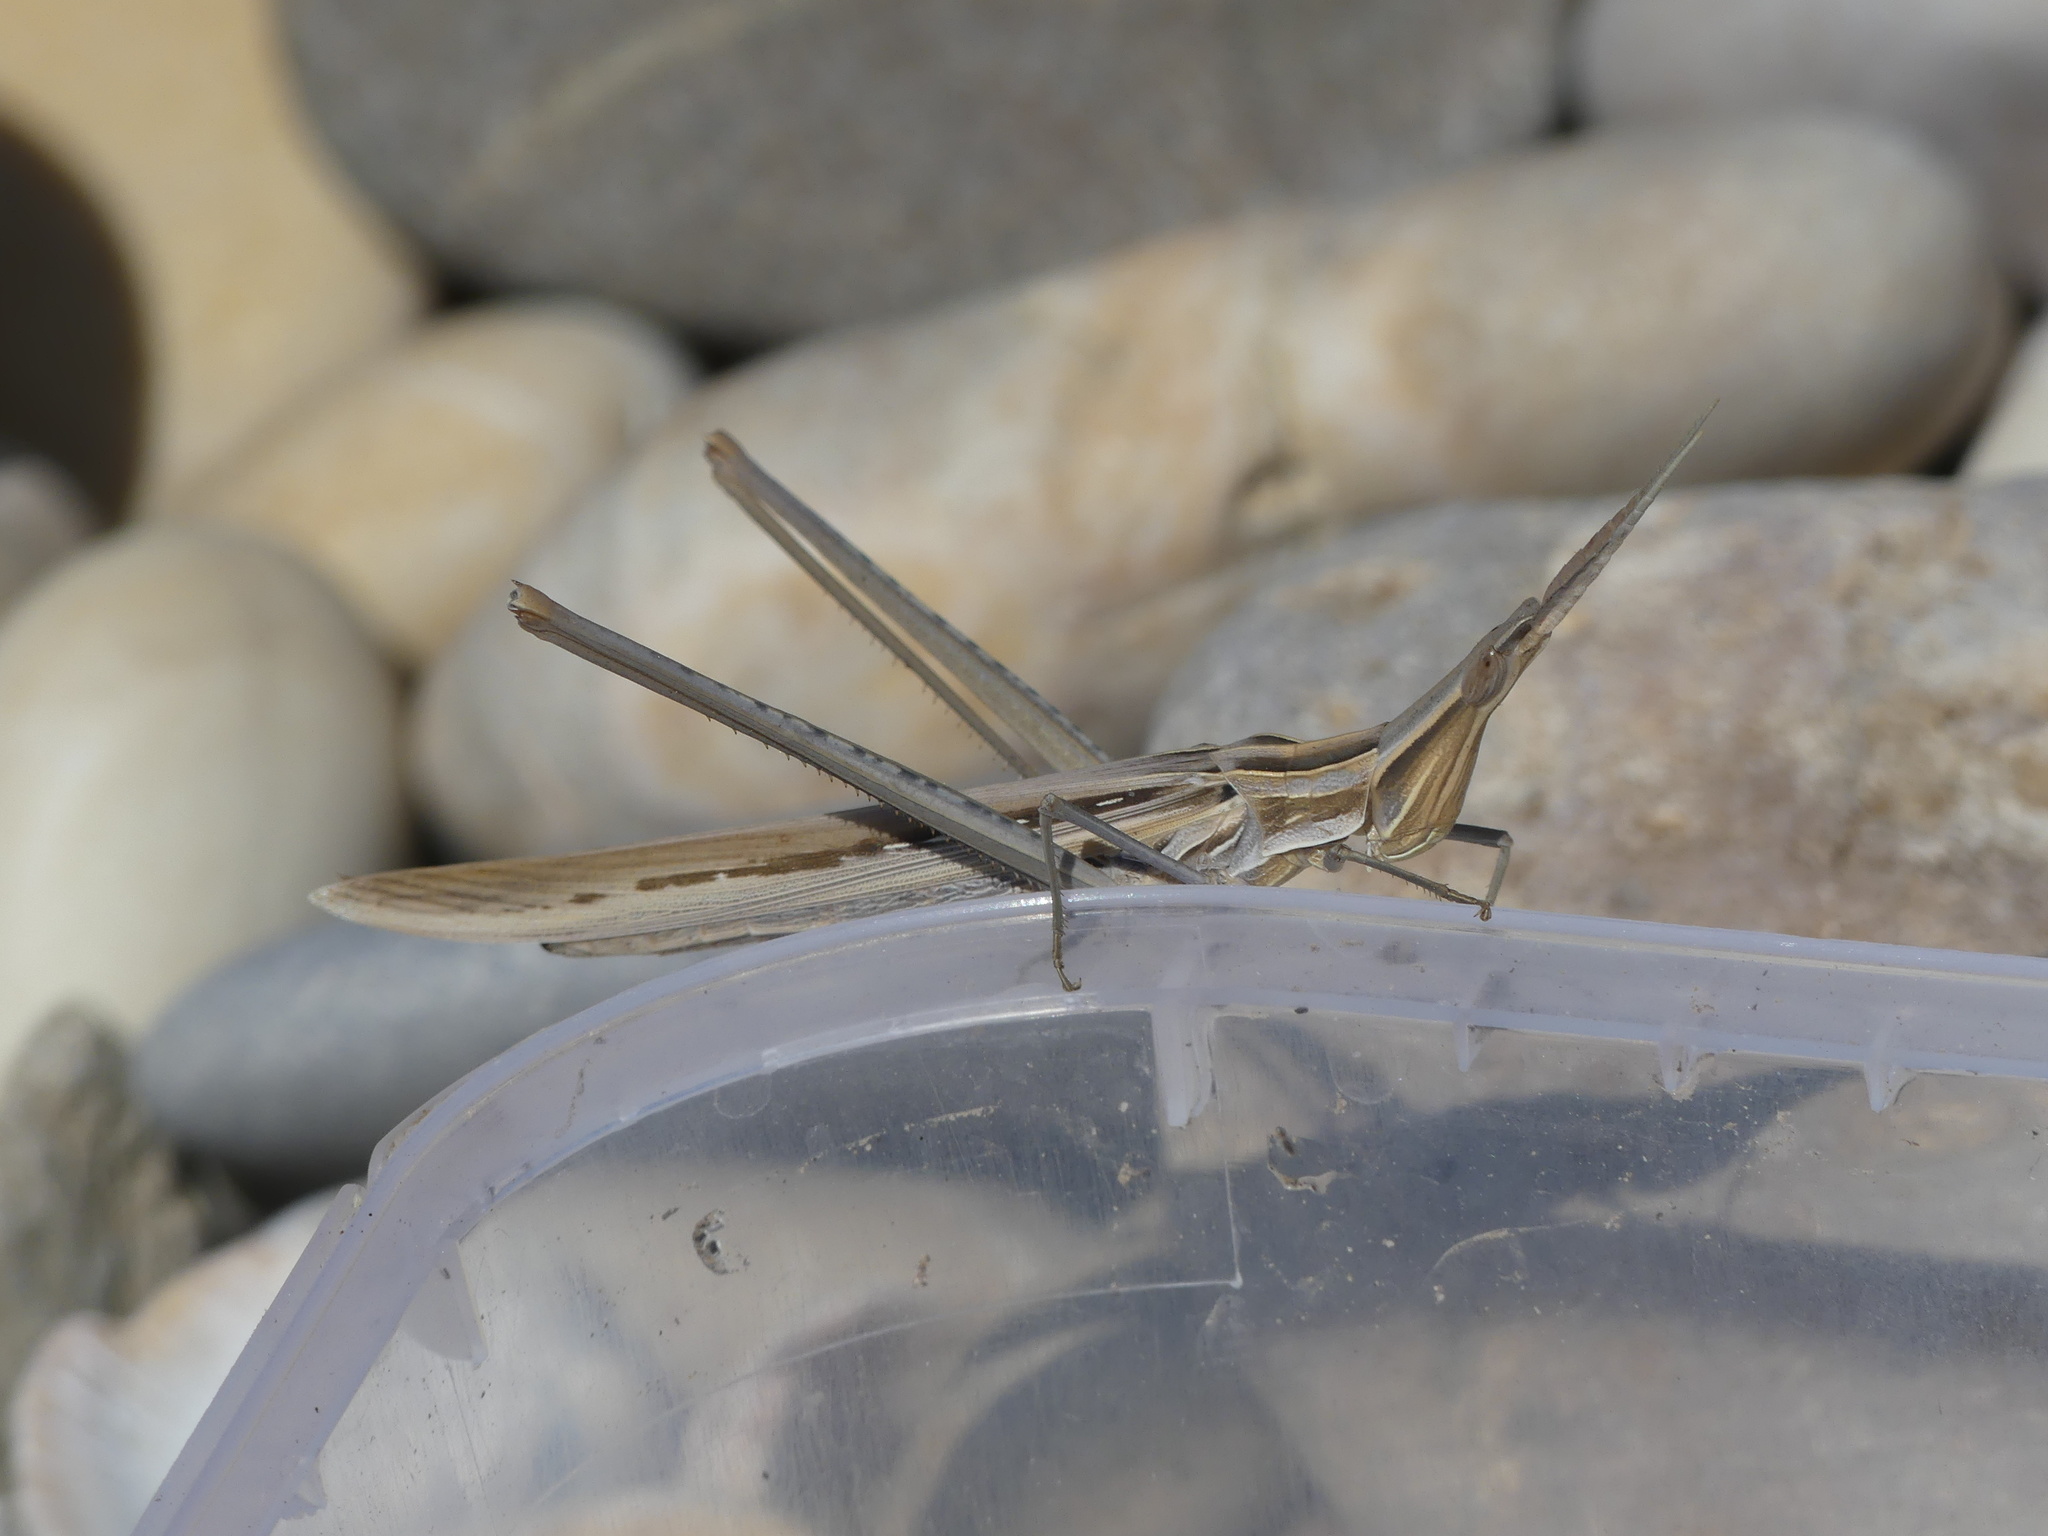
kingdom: Animalia
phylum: Arthropoda
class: Insecta
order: Orthoptera
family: Acrididae
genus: Acrida
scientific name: Acrida ungarica
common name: Common cone-headed grasshopper
